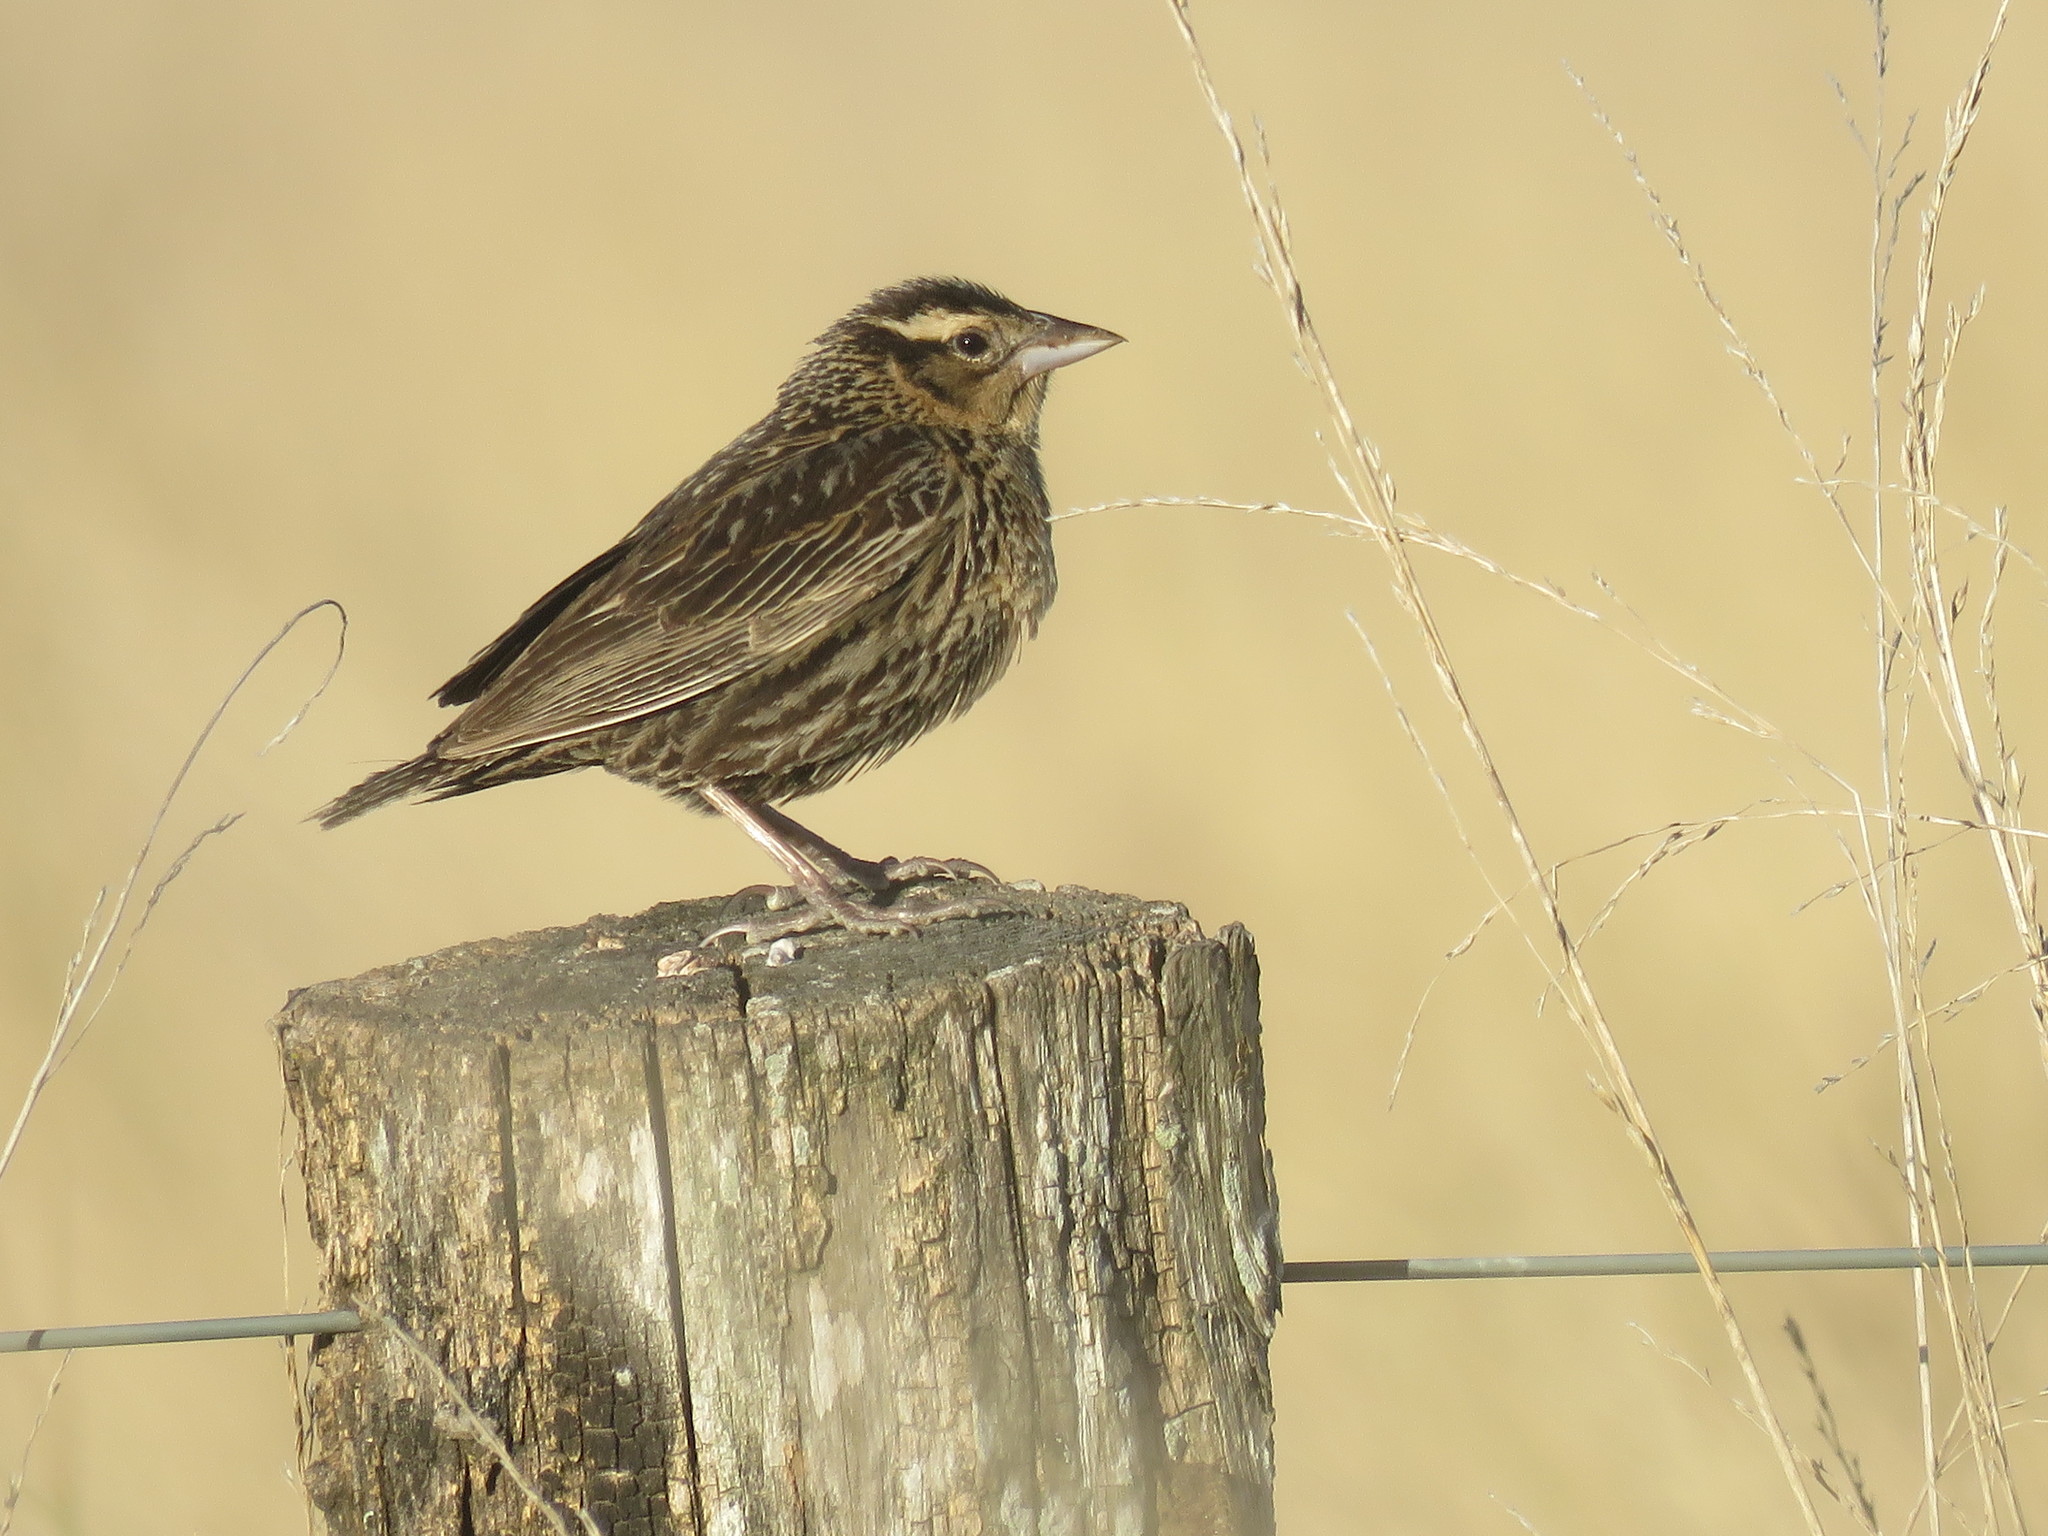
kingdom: Animalia
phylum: Chordata
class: Aves
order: Passeriformes
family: Icteridae
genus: Sturnella
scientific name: Sturnella superciliaris
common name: White-browed blackbird
